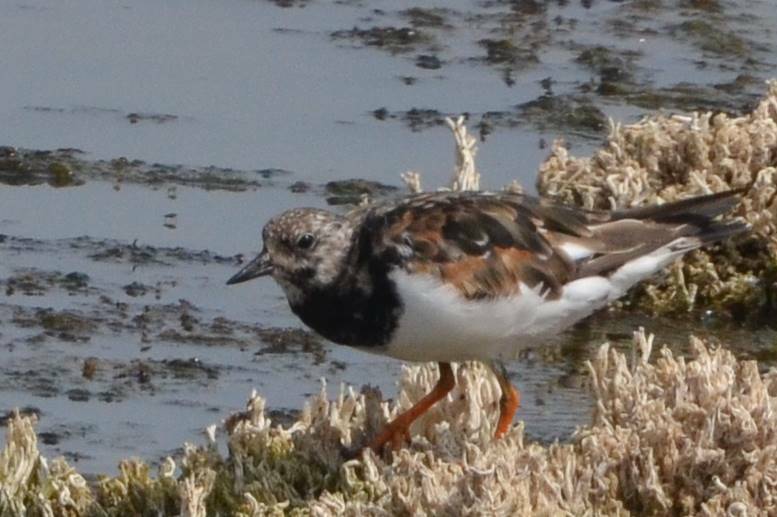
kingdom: Animalia
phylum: Chordata
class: Aves
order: Charadriiformes
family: Scolopacidae
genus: Arenaria
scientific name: Arenaria interpres
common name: Ruddy turnstone
